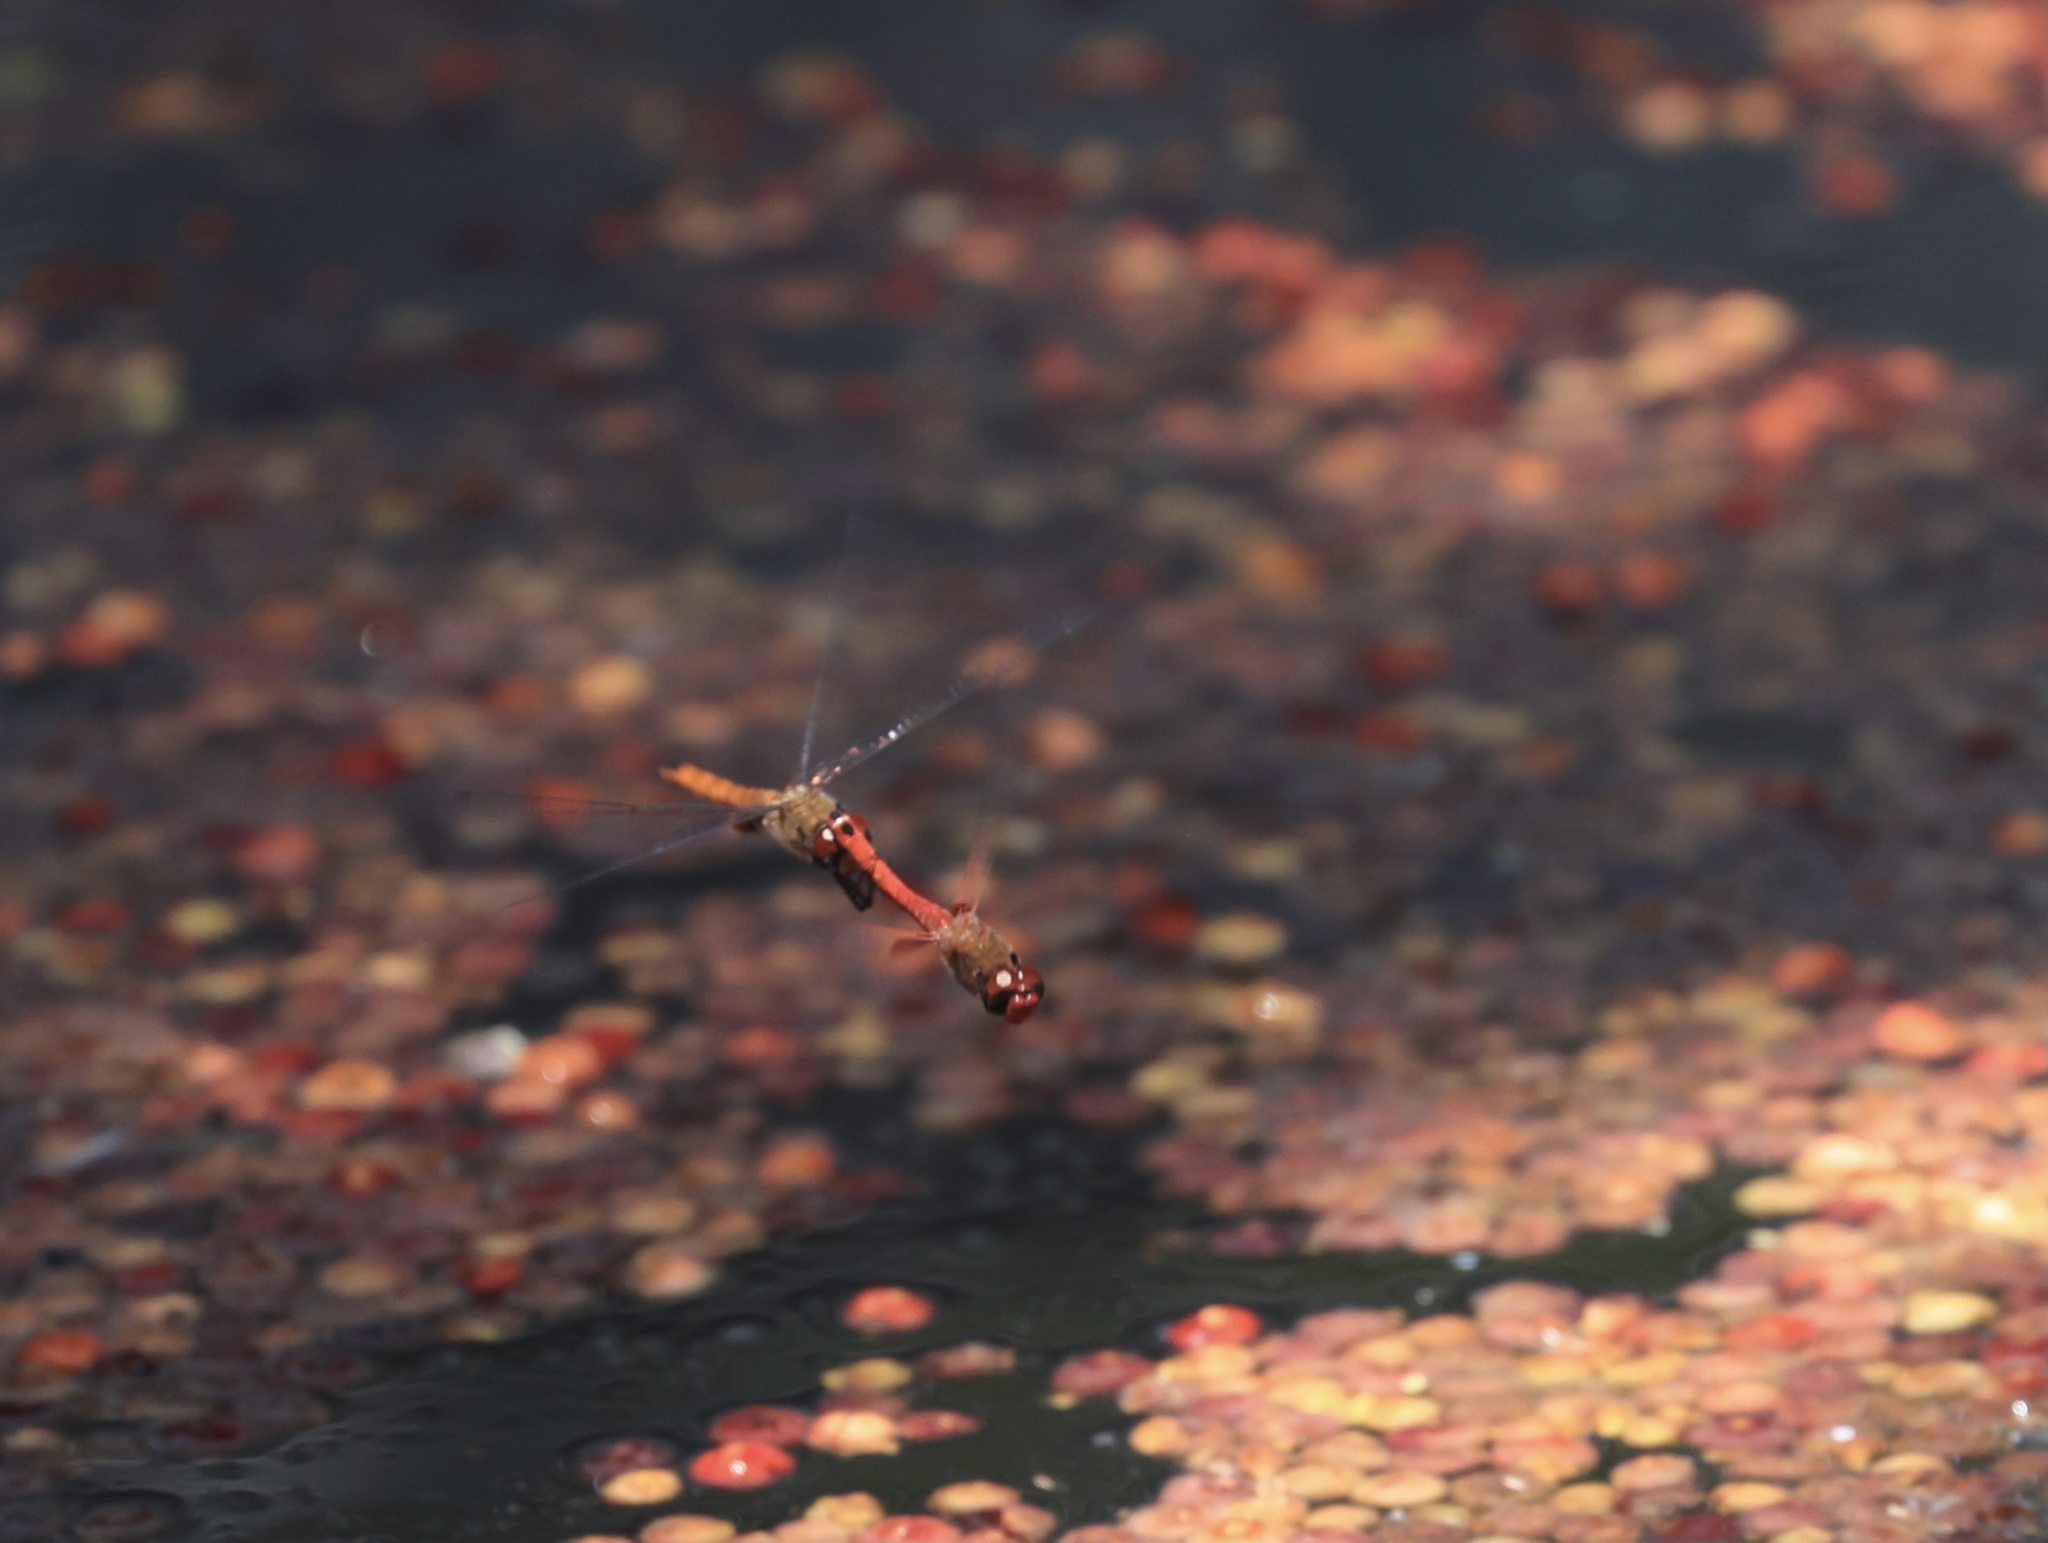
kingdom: Animalia
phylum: Arthropoda
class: Insecta
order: Odonata
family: Libellulidae
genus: Tramea
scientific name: Tramea abdominalis
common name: Vermilion saddlebags
